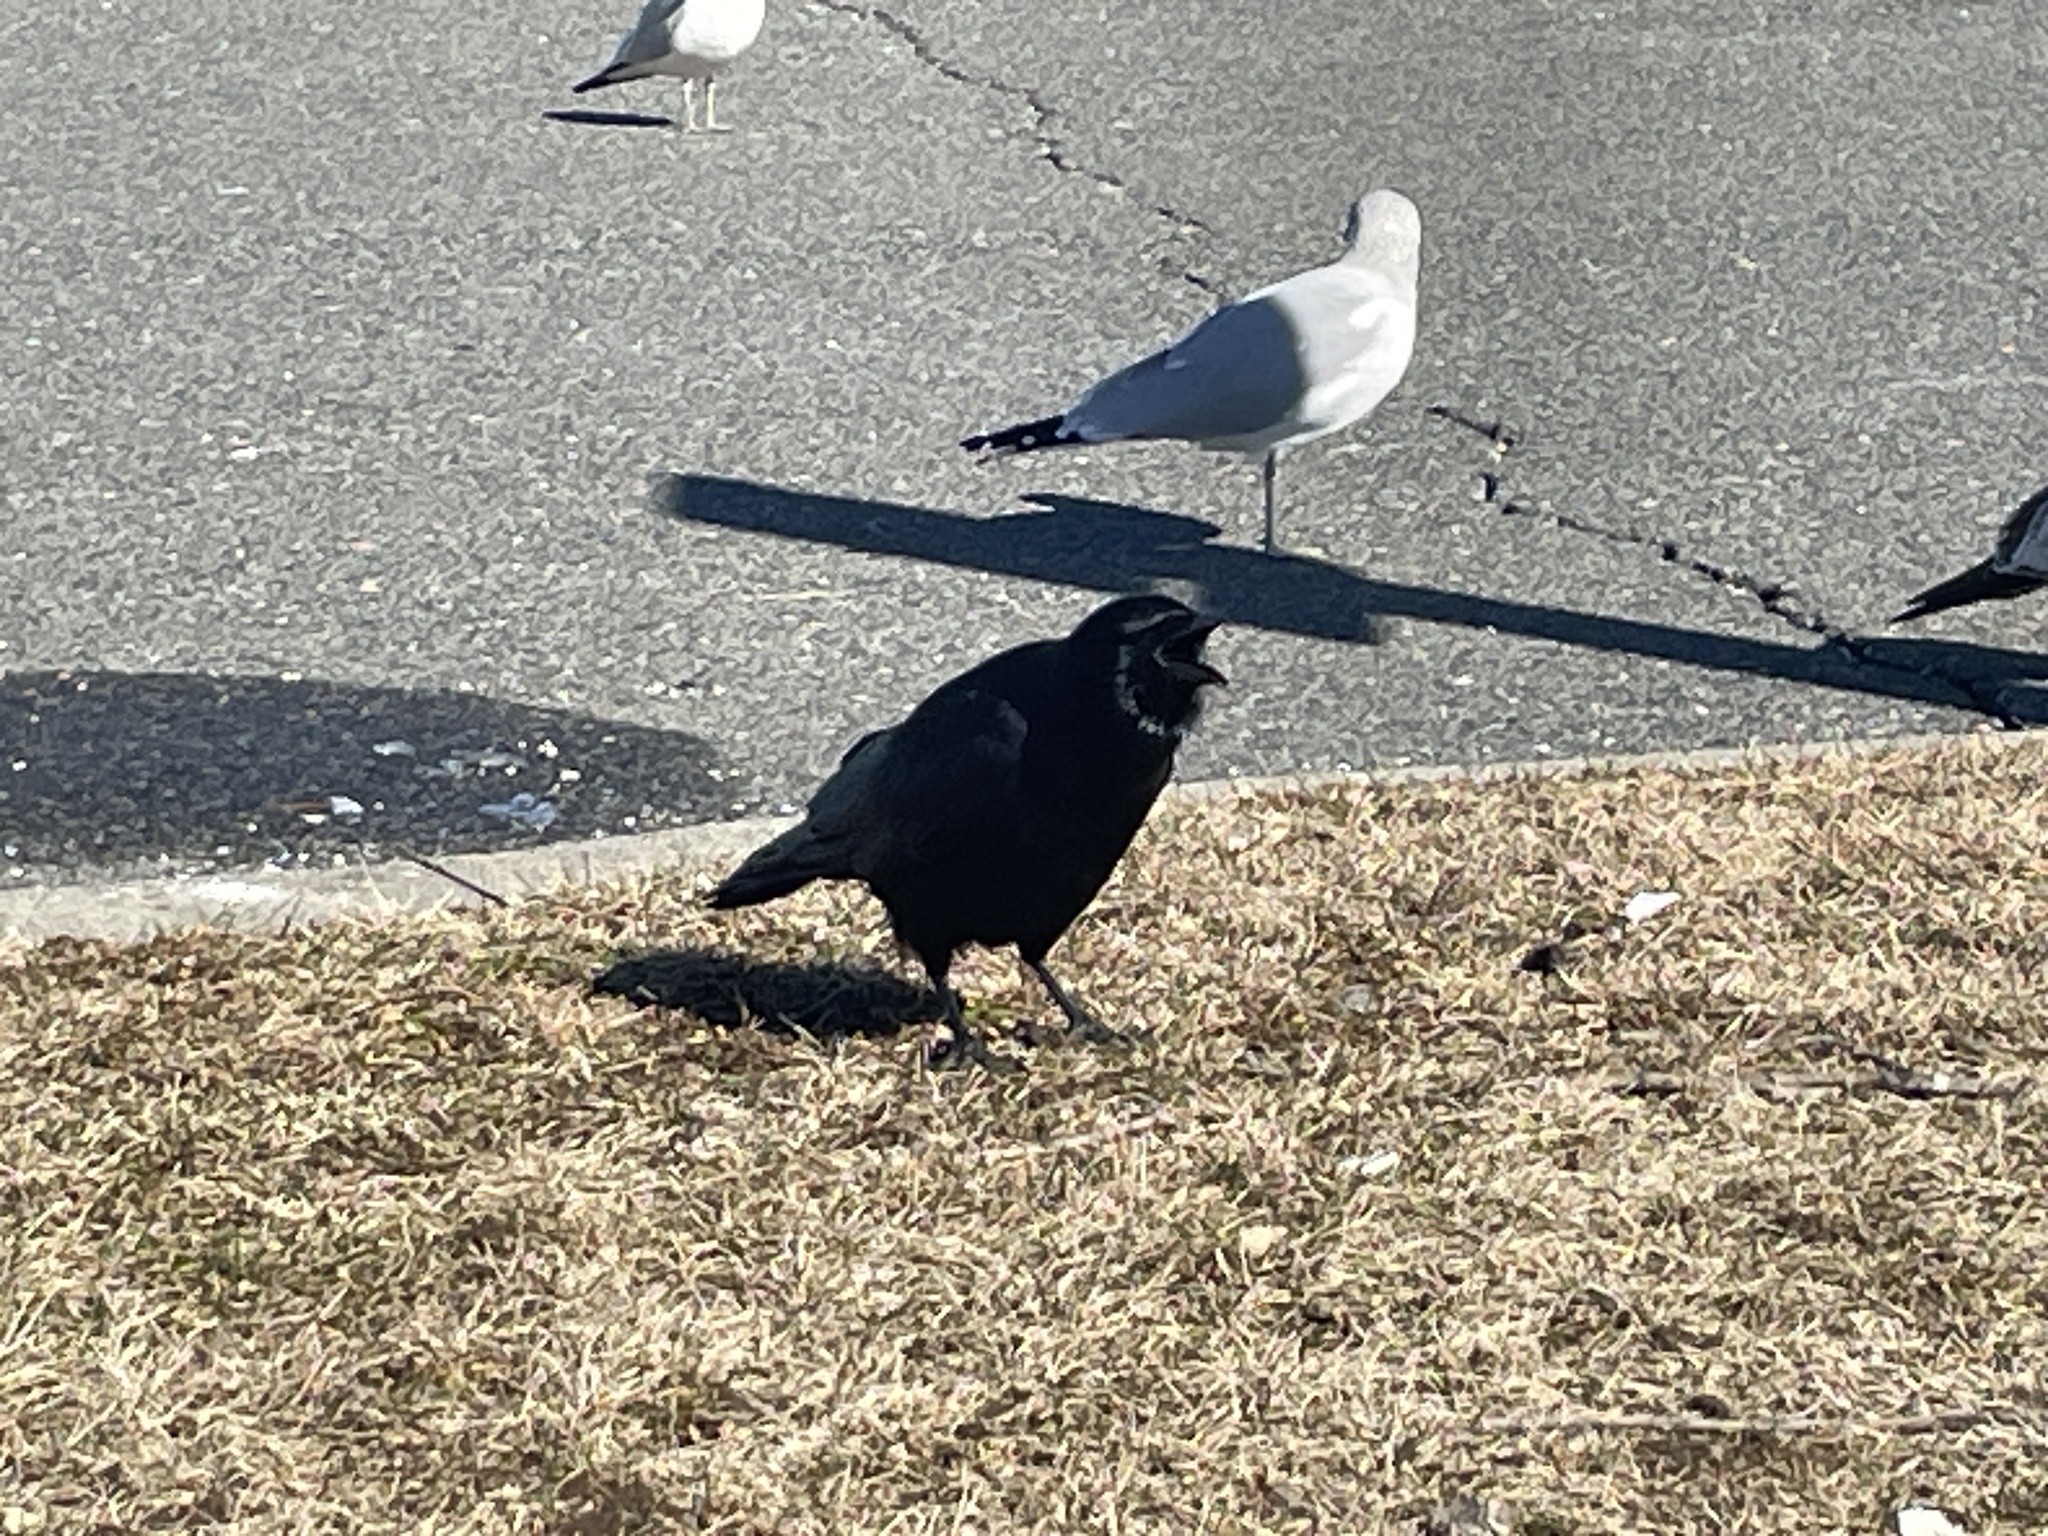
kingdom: Animalia
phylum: Chordata
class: Aves
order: Passeriformes
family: Corvidae
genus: Corvus
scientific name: Corvus ossifragus
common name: Fish crow
